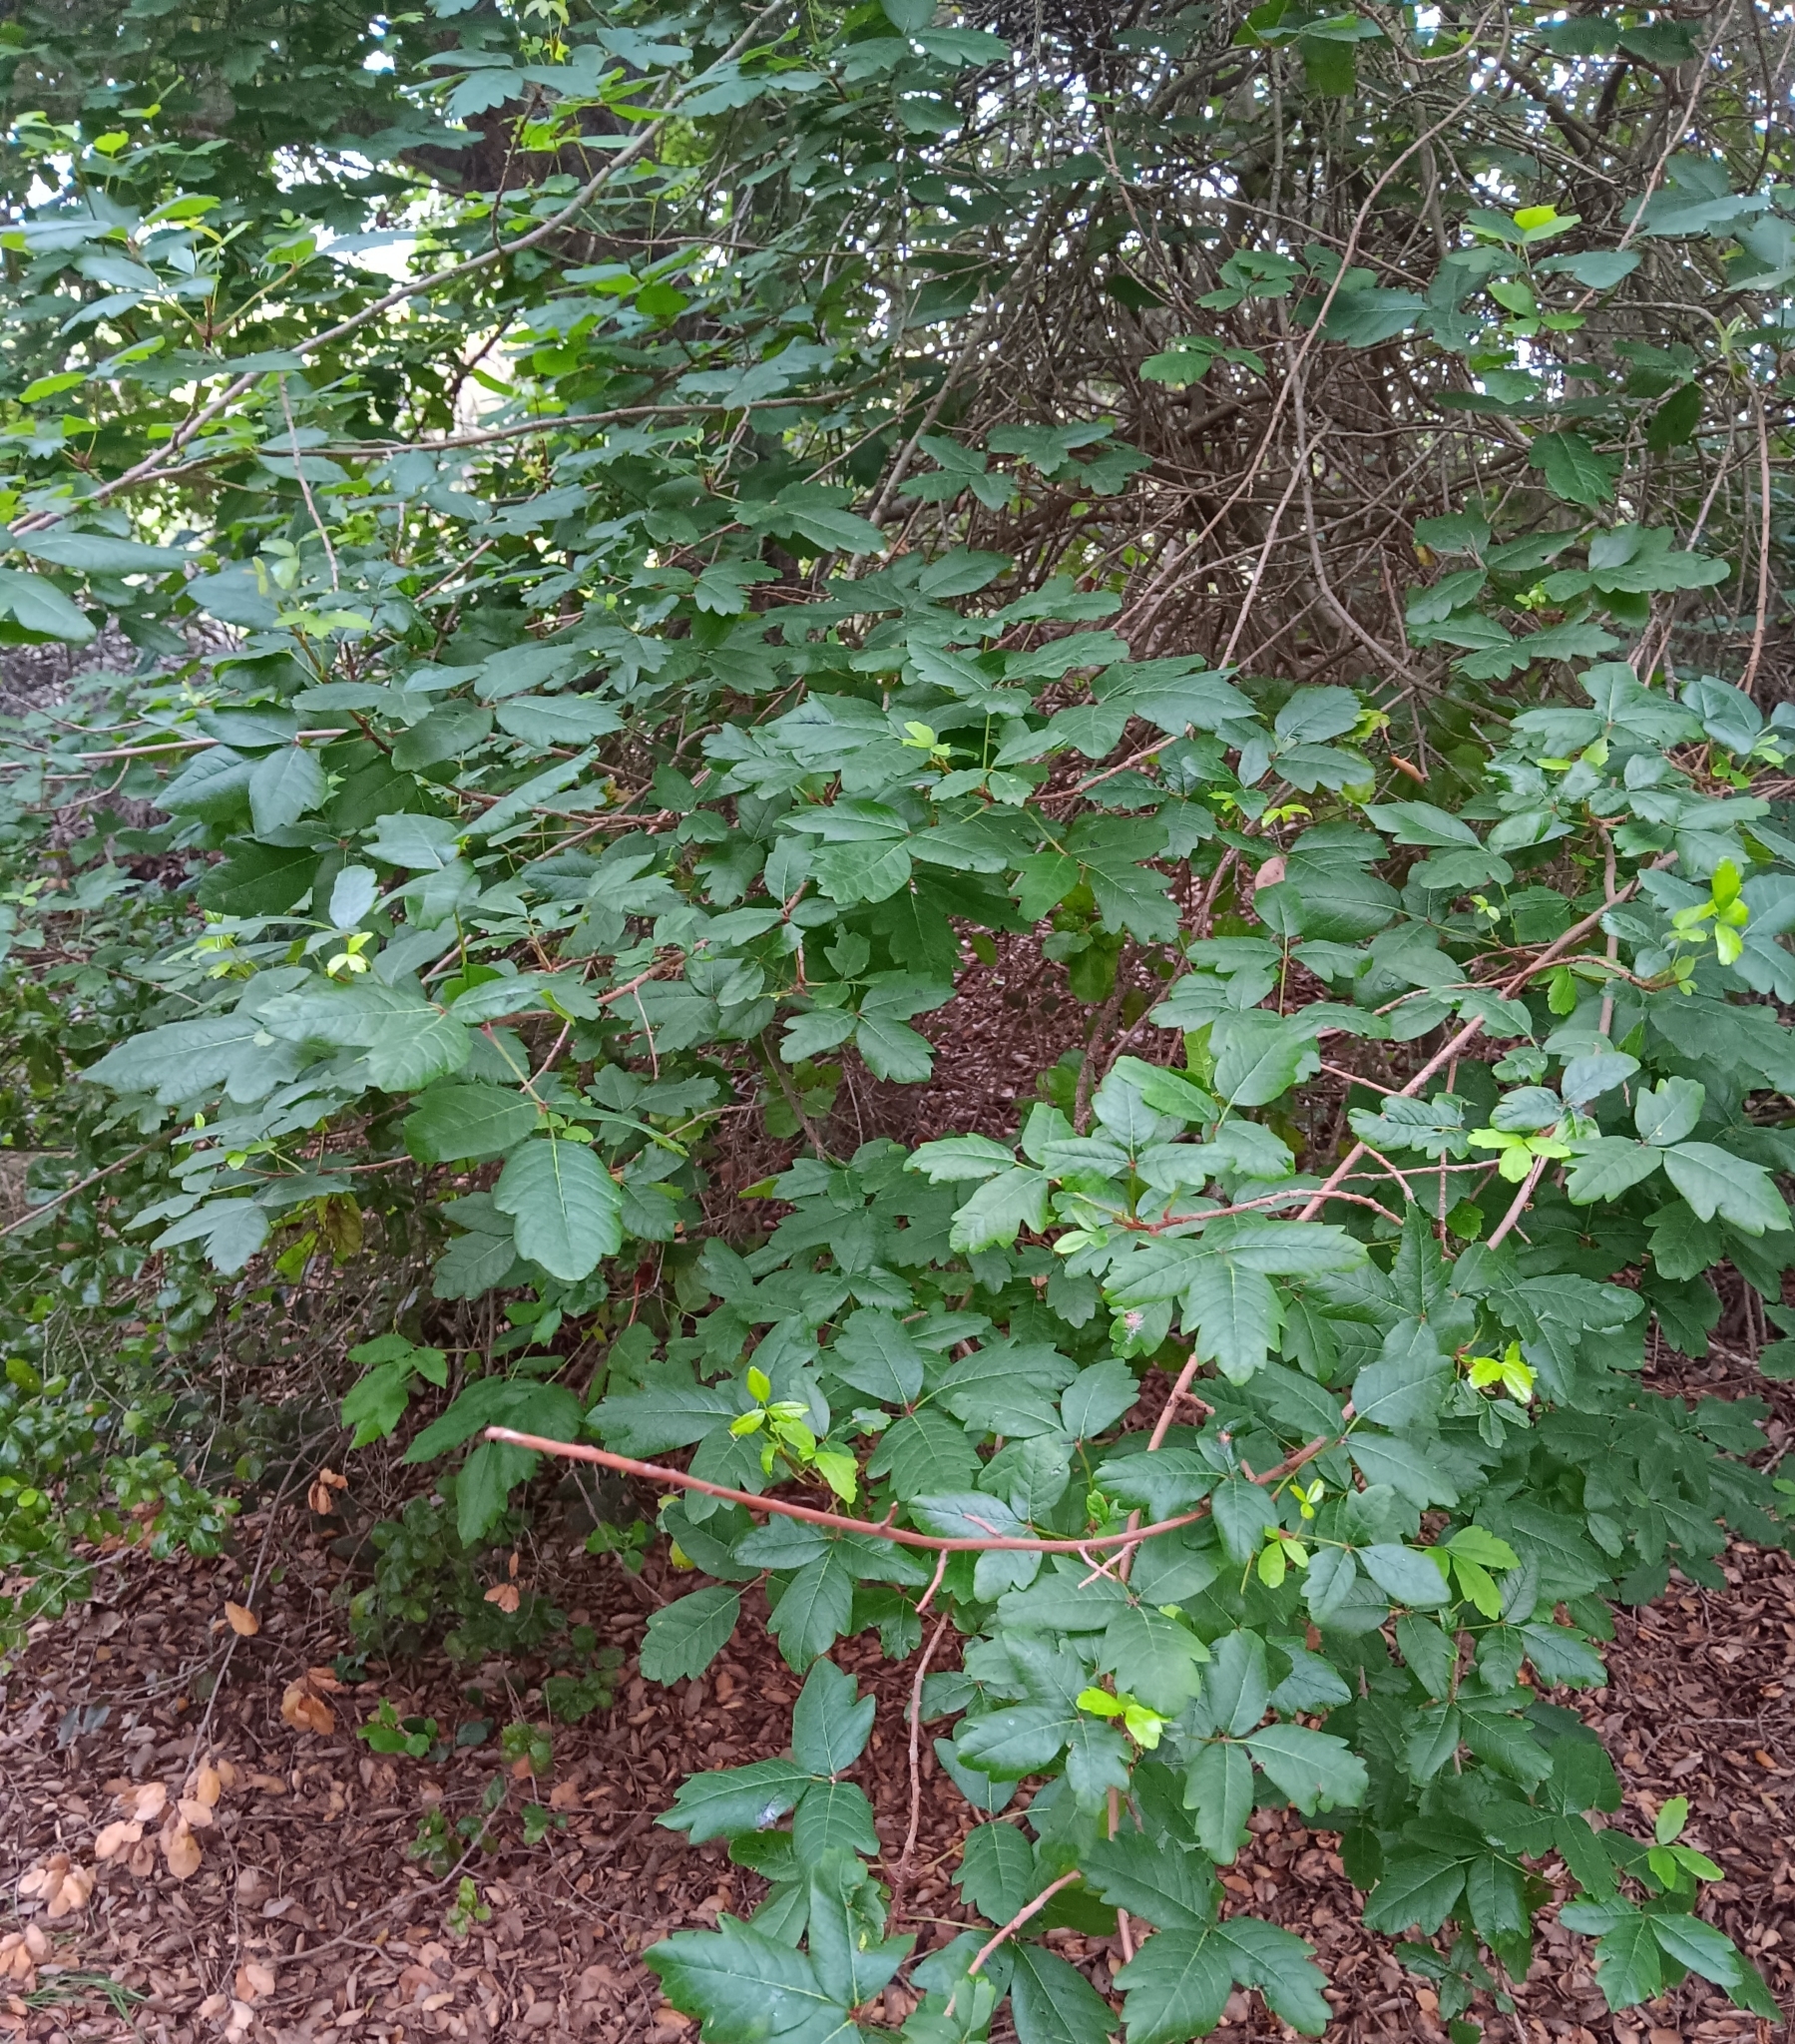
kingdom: Plantae
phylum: Tracheophyta
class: Magnoliopsida
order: Sapindales
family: Anacardiaceae
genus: Toxicodendron
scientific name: Toxicodendron diversilobum
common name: Pacific poison-oak
